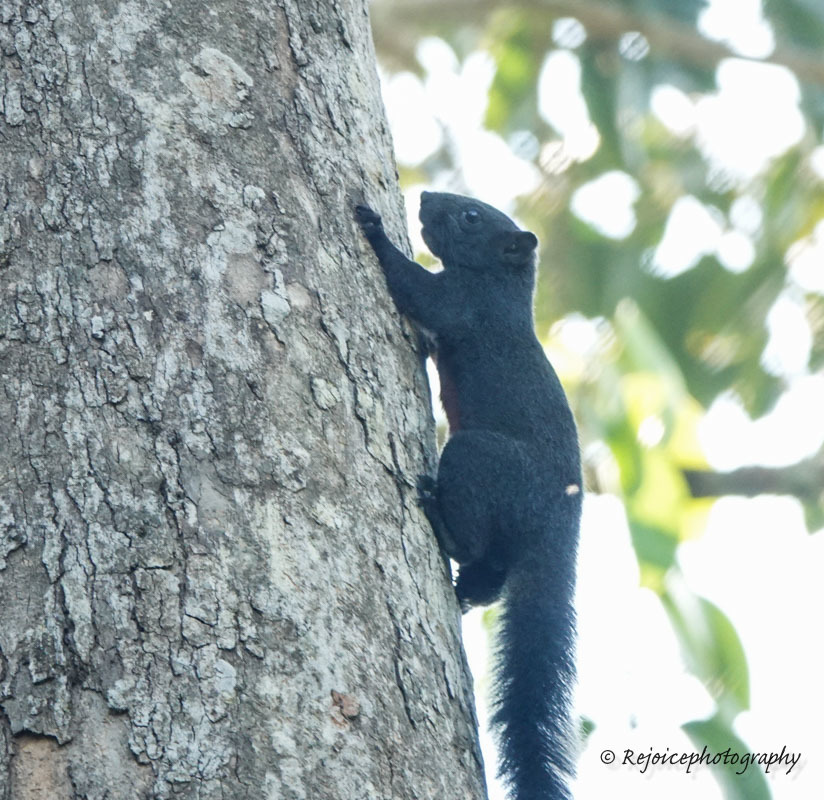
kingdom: Animalia
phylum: Chordata
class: Mammalia
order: Rodentia
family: Sciuridae
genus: Callosciurus
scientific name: Callosciurus erythraeus
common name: Pallas's squirrel
